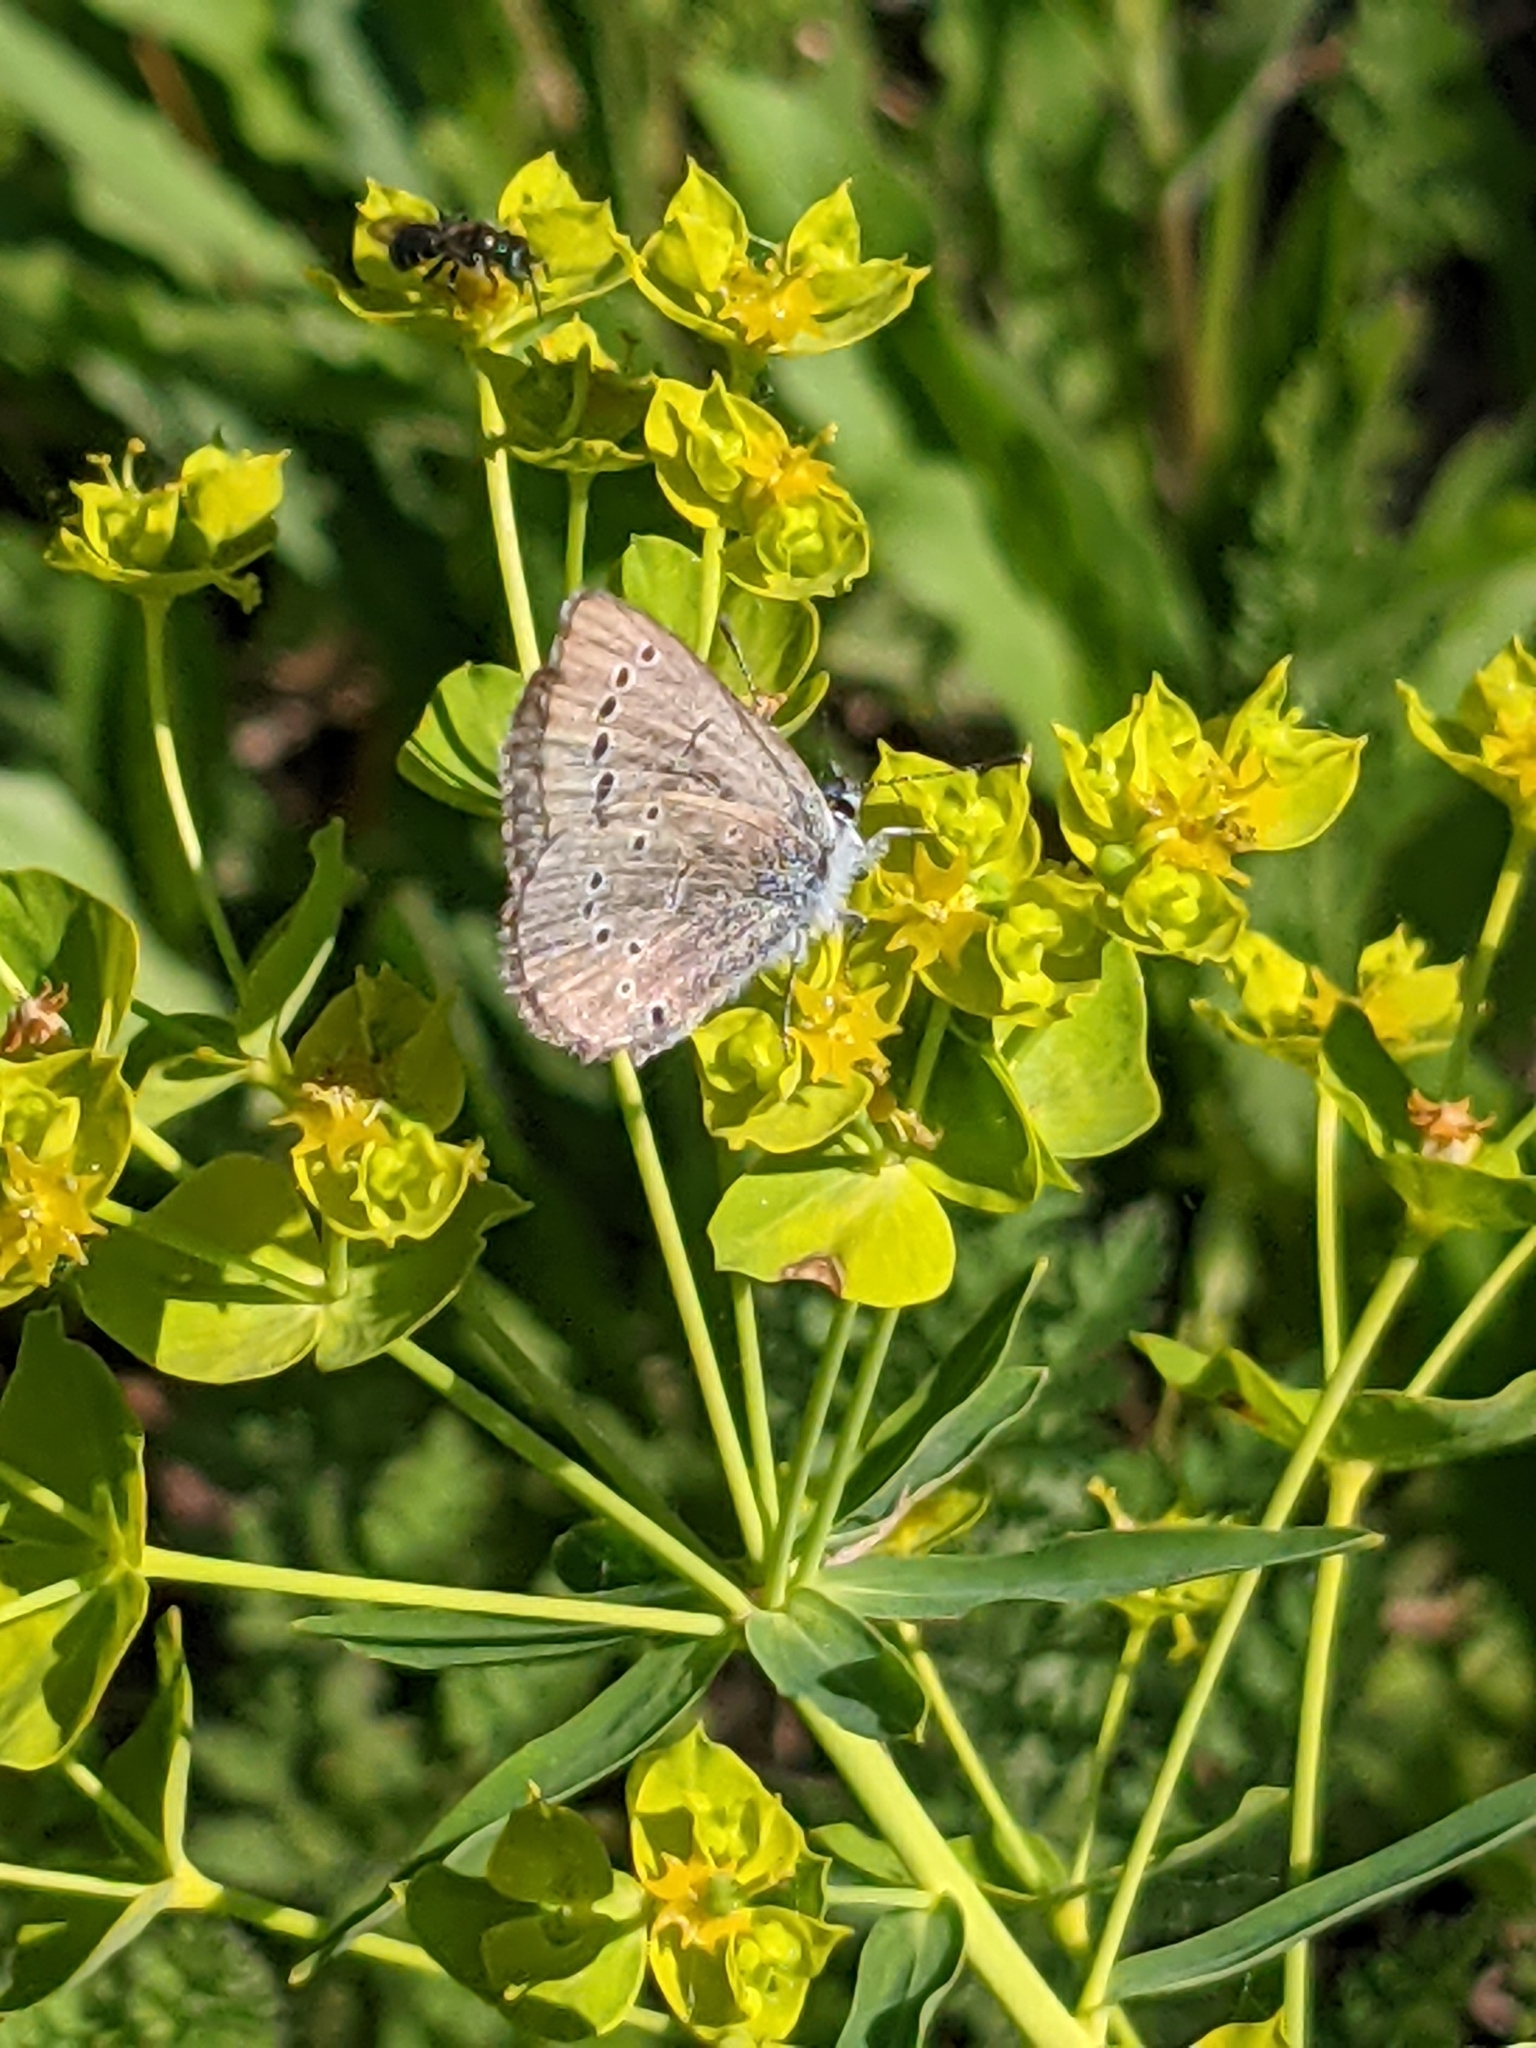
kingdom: Animalia
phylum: Arthropoda
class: Insecta
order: Lepidoptera
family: Lycaenidae
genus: Glaucopsyche
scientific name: Glaucopsyche lygdamus
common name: Silvery blue
